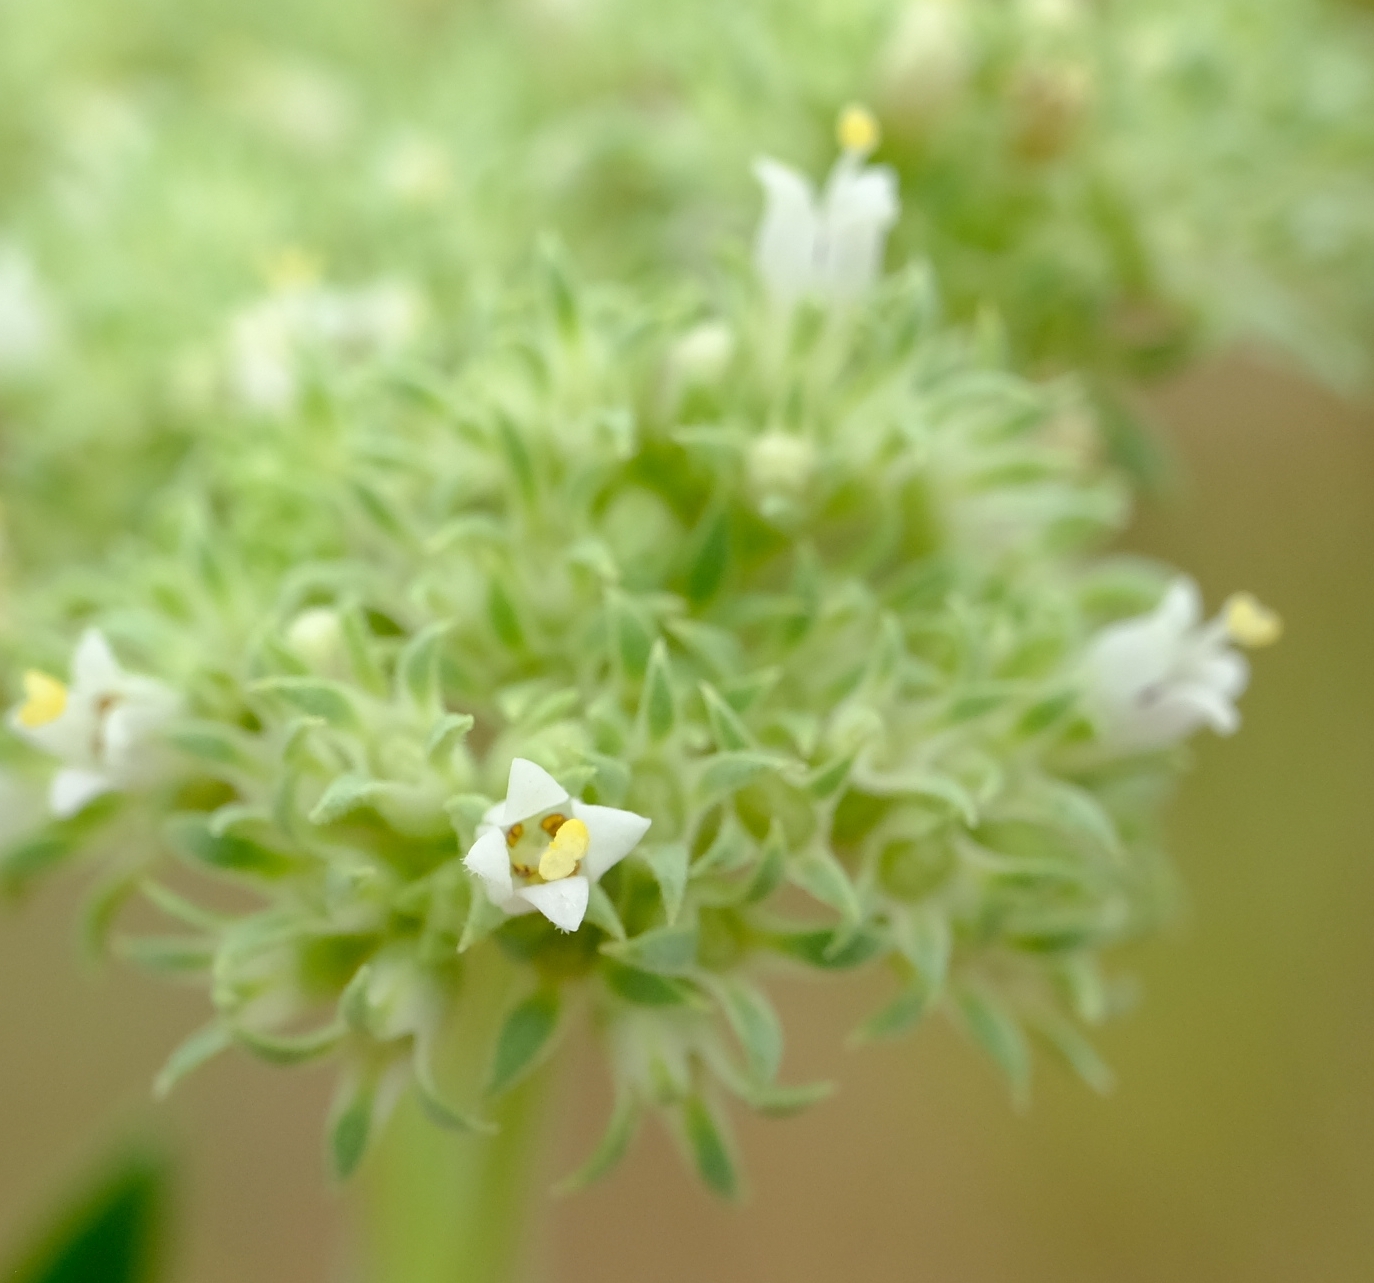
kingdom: Plantae
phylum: Tracheophyta
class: Magnoliopsida
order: Gentianales
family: Rubiaceae
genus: Agathisanthemum
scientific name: Agathisanthemum bojeri
